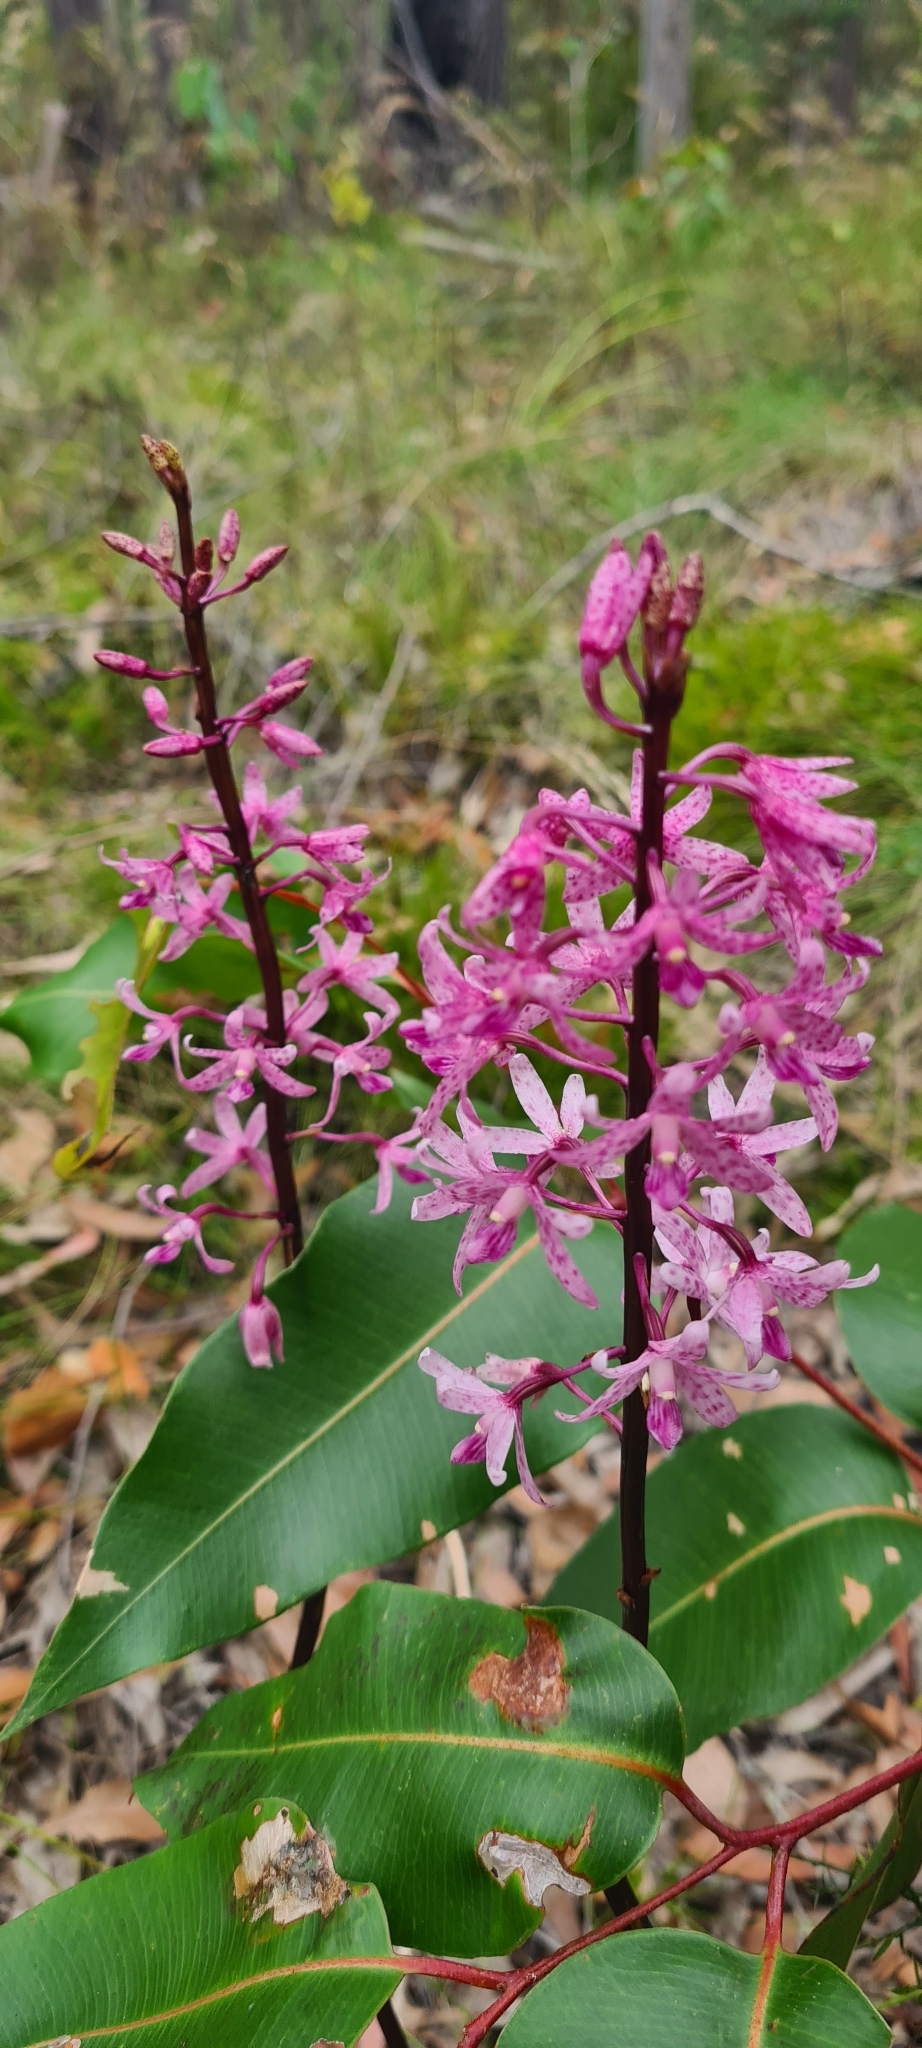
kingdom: Plantae
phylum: Tracheophyta
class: Liliopsida
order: Asparagales
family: Orchidaceae
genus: Dipodium
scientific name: Dipodium squamatum
